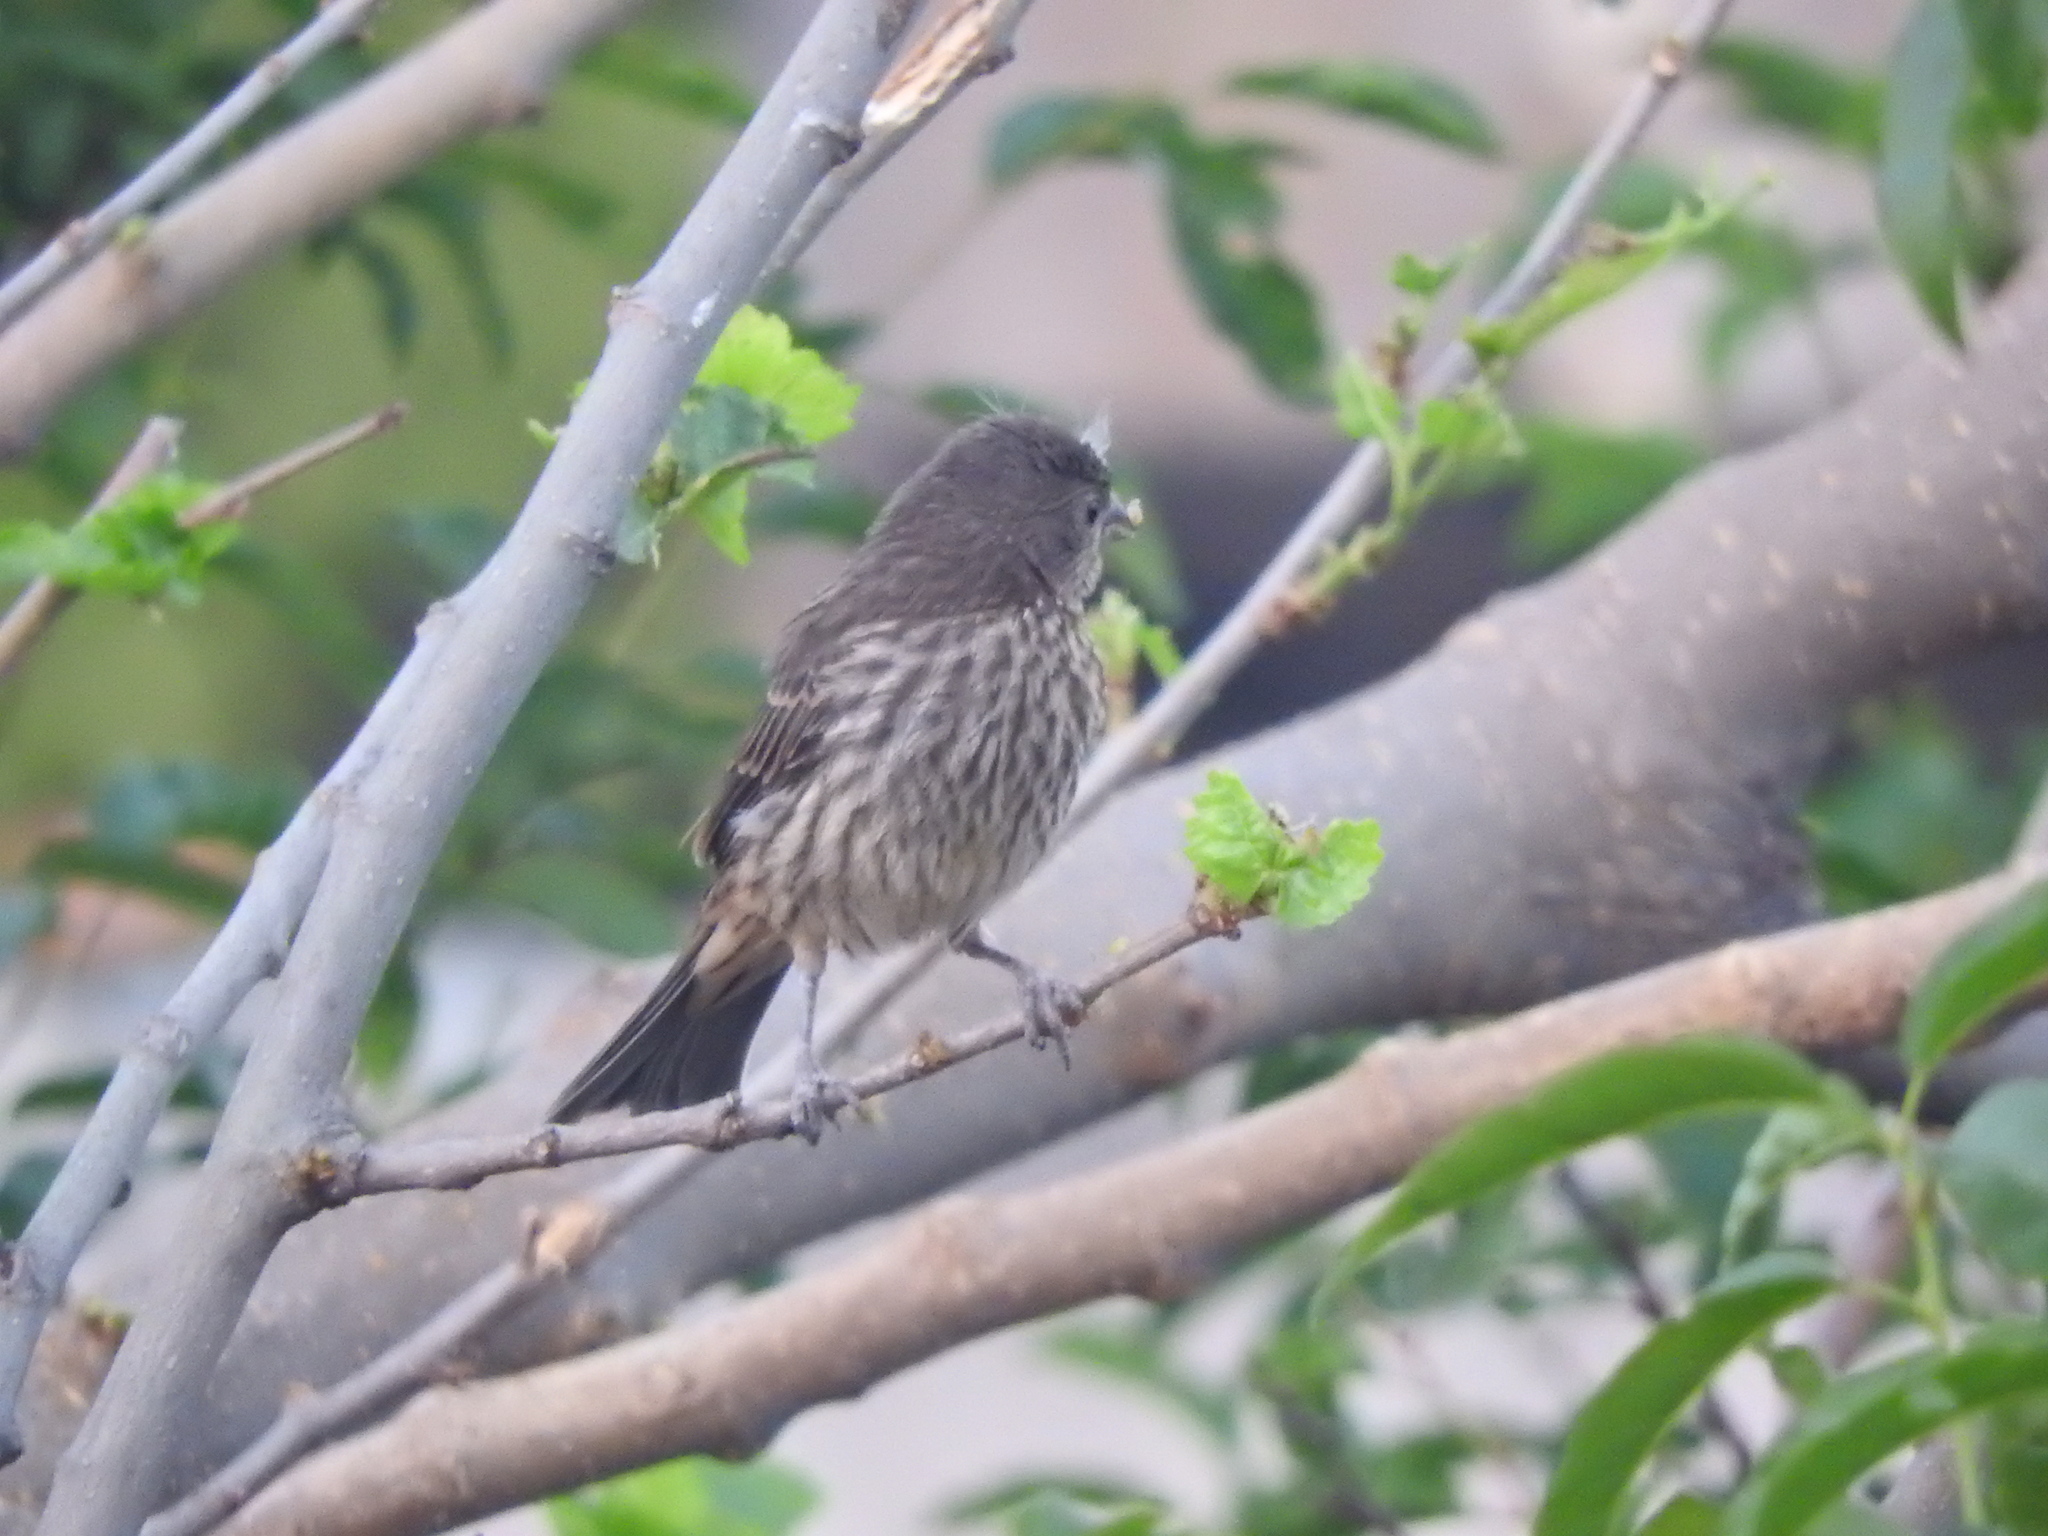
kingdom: Animalia
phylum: Chordata
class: Aves
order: Passeriformes
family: Fringillidae
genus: Haemorhous
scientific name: Haemorhous mexicanus
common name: House finch
